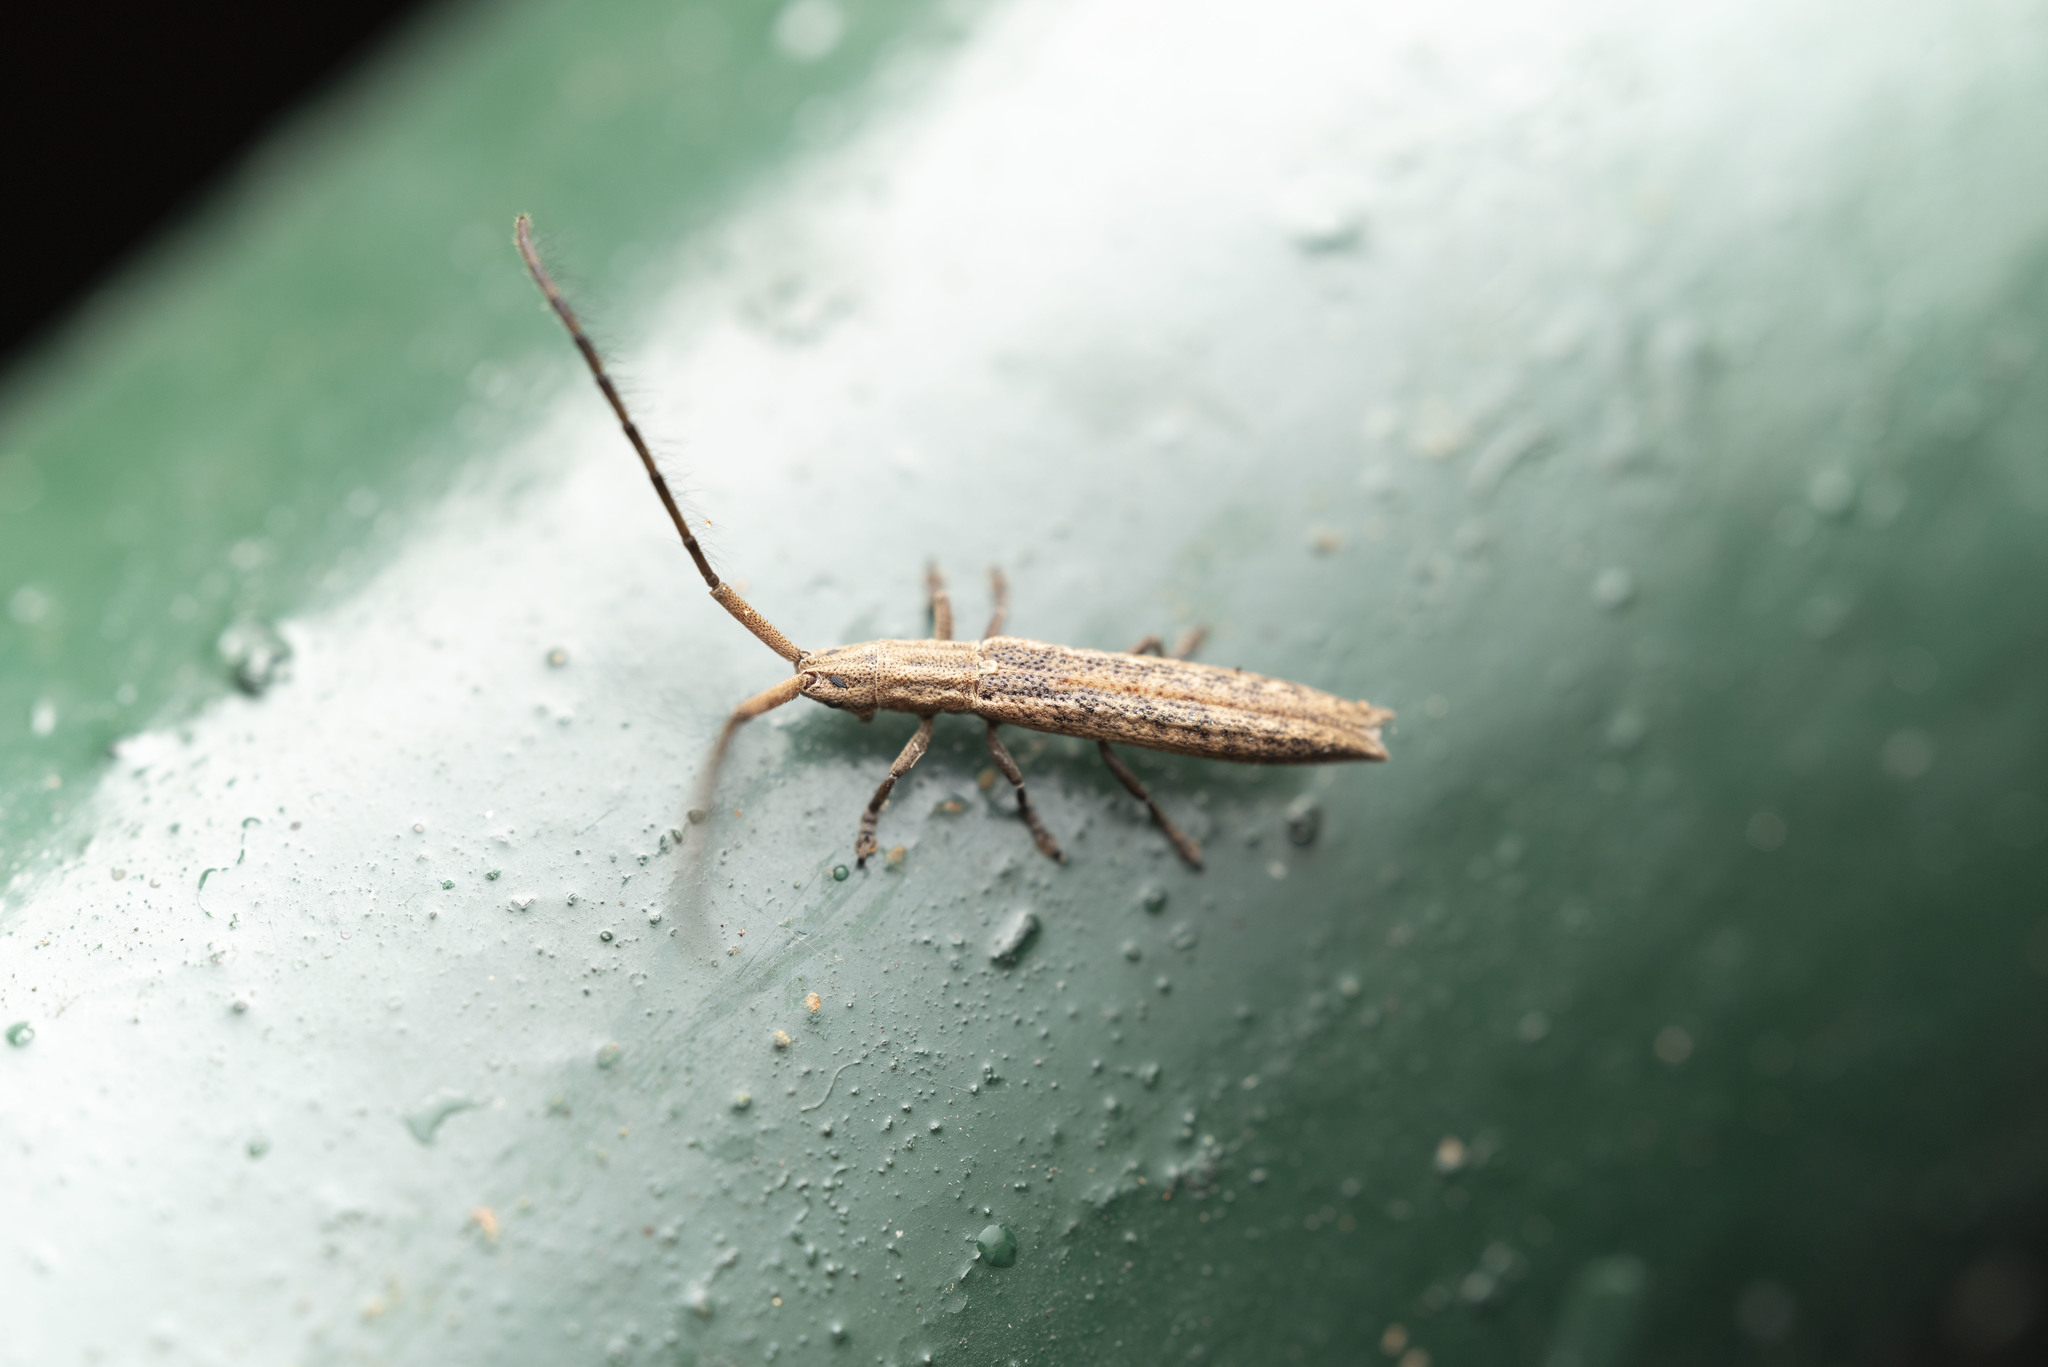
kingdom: Animalia
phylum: Arthropoda
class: Insecta
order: Coleoptera
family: Cerambycidae
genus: Tetraglenes
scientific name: Tetraglenes hirticornis
